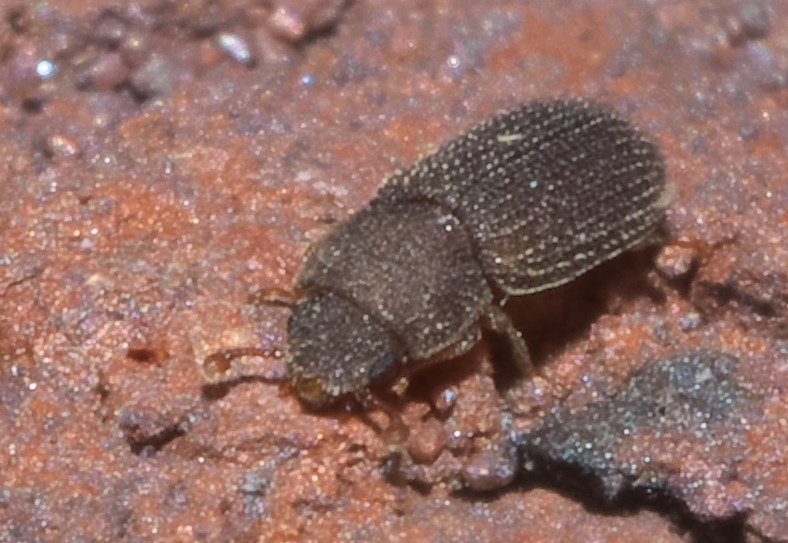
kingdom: Animalia
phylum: Arthropoda
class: Insecta
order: Coleoptera
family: Zopheridae
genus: Synchita
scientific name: Synchita fuliginosa
